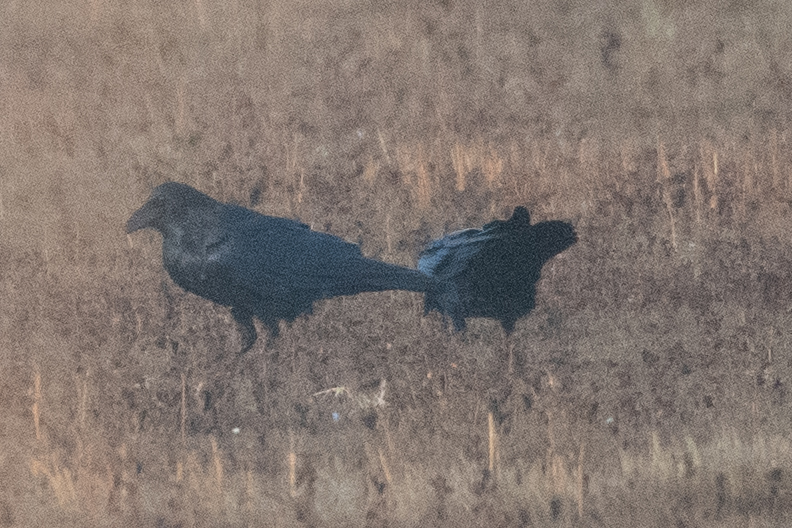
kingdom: Animalia
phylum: Chordata
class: Aves
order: Passeriformes
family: Corvidae
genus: Corvus
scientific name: Corvus corax
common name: Common raven
